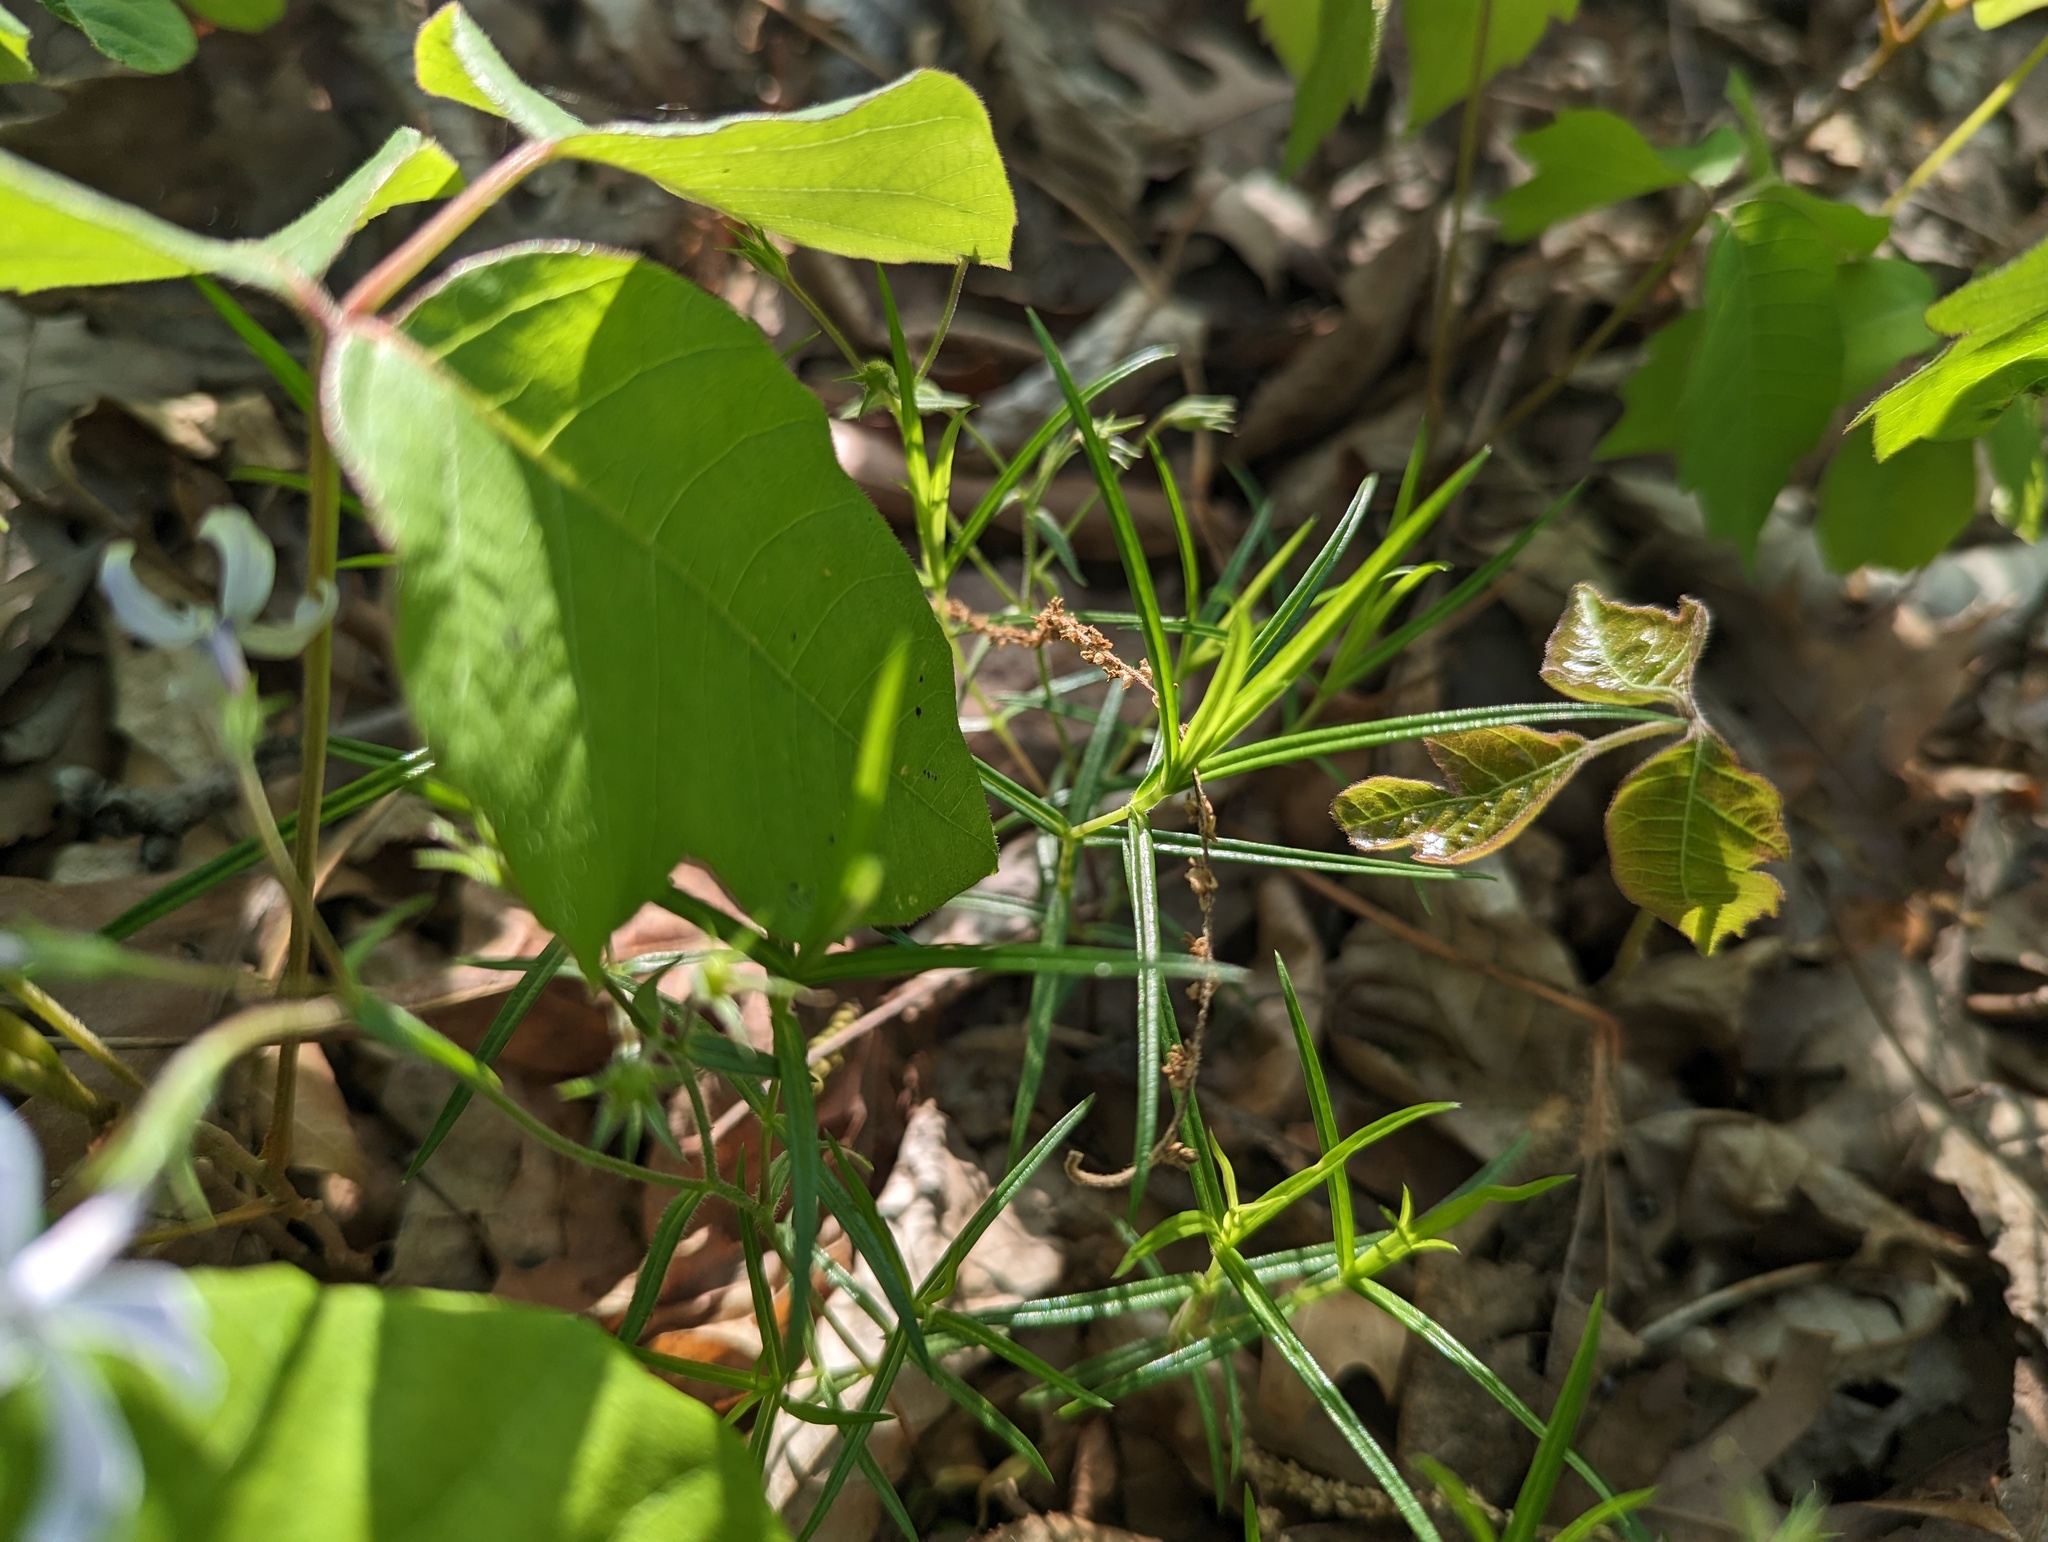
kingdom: Plantae
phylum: Tracheophyta
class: Magnoliopsida
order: Ericales
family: Polemoniaceae
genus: Phlox
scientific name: Phlox bifida
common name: Sand phlox
